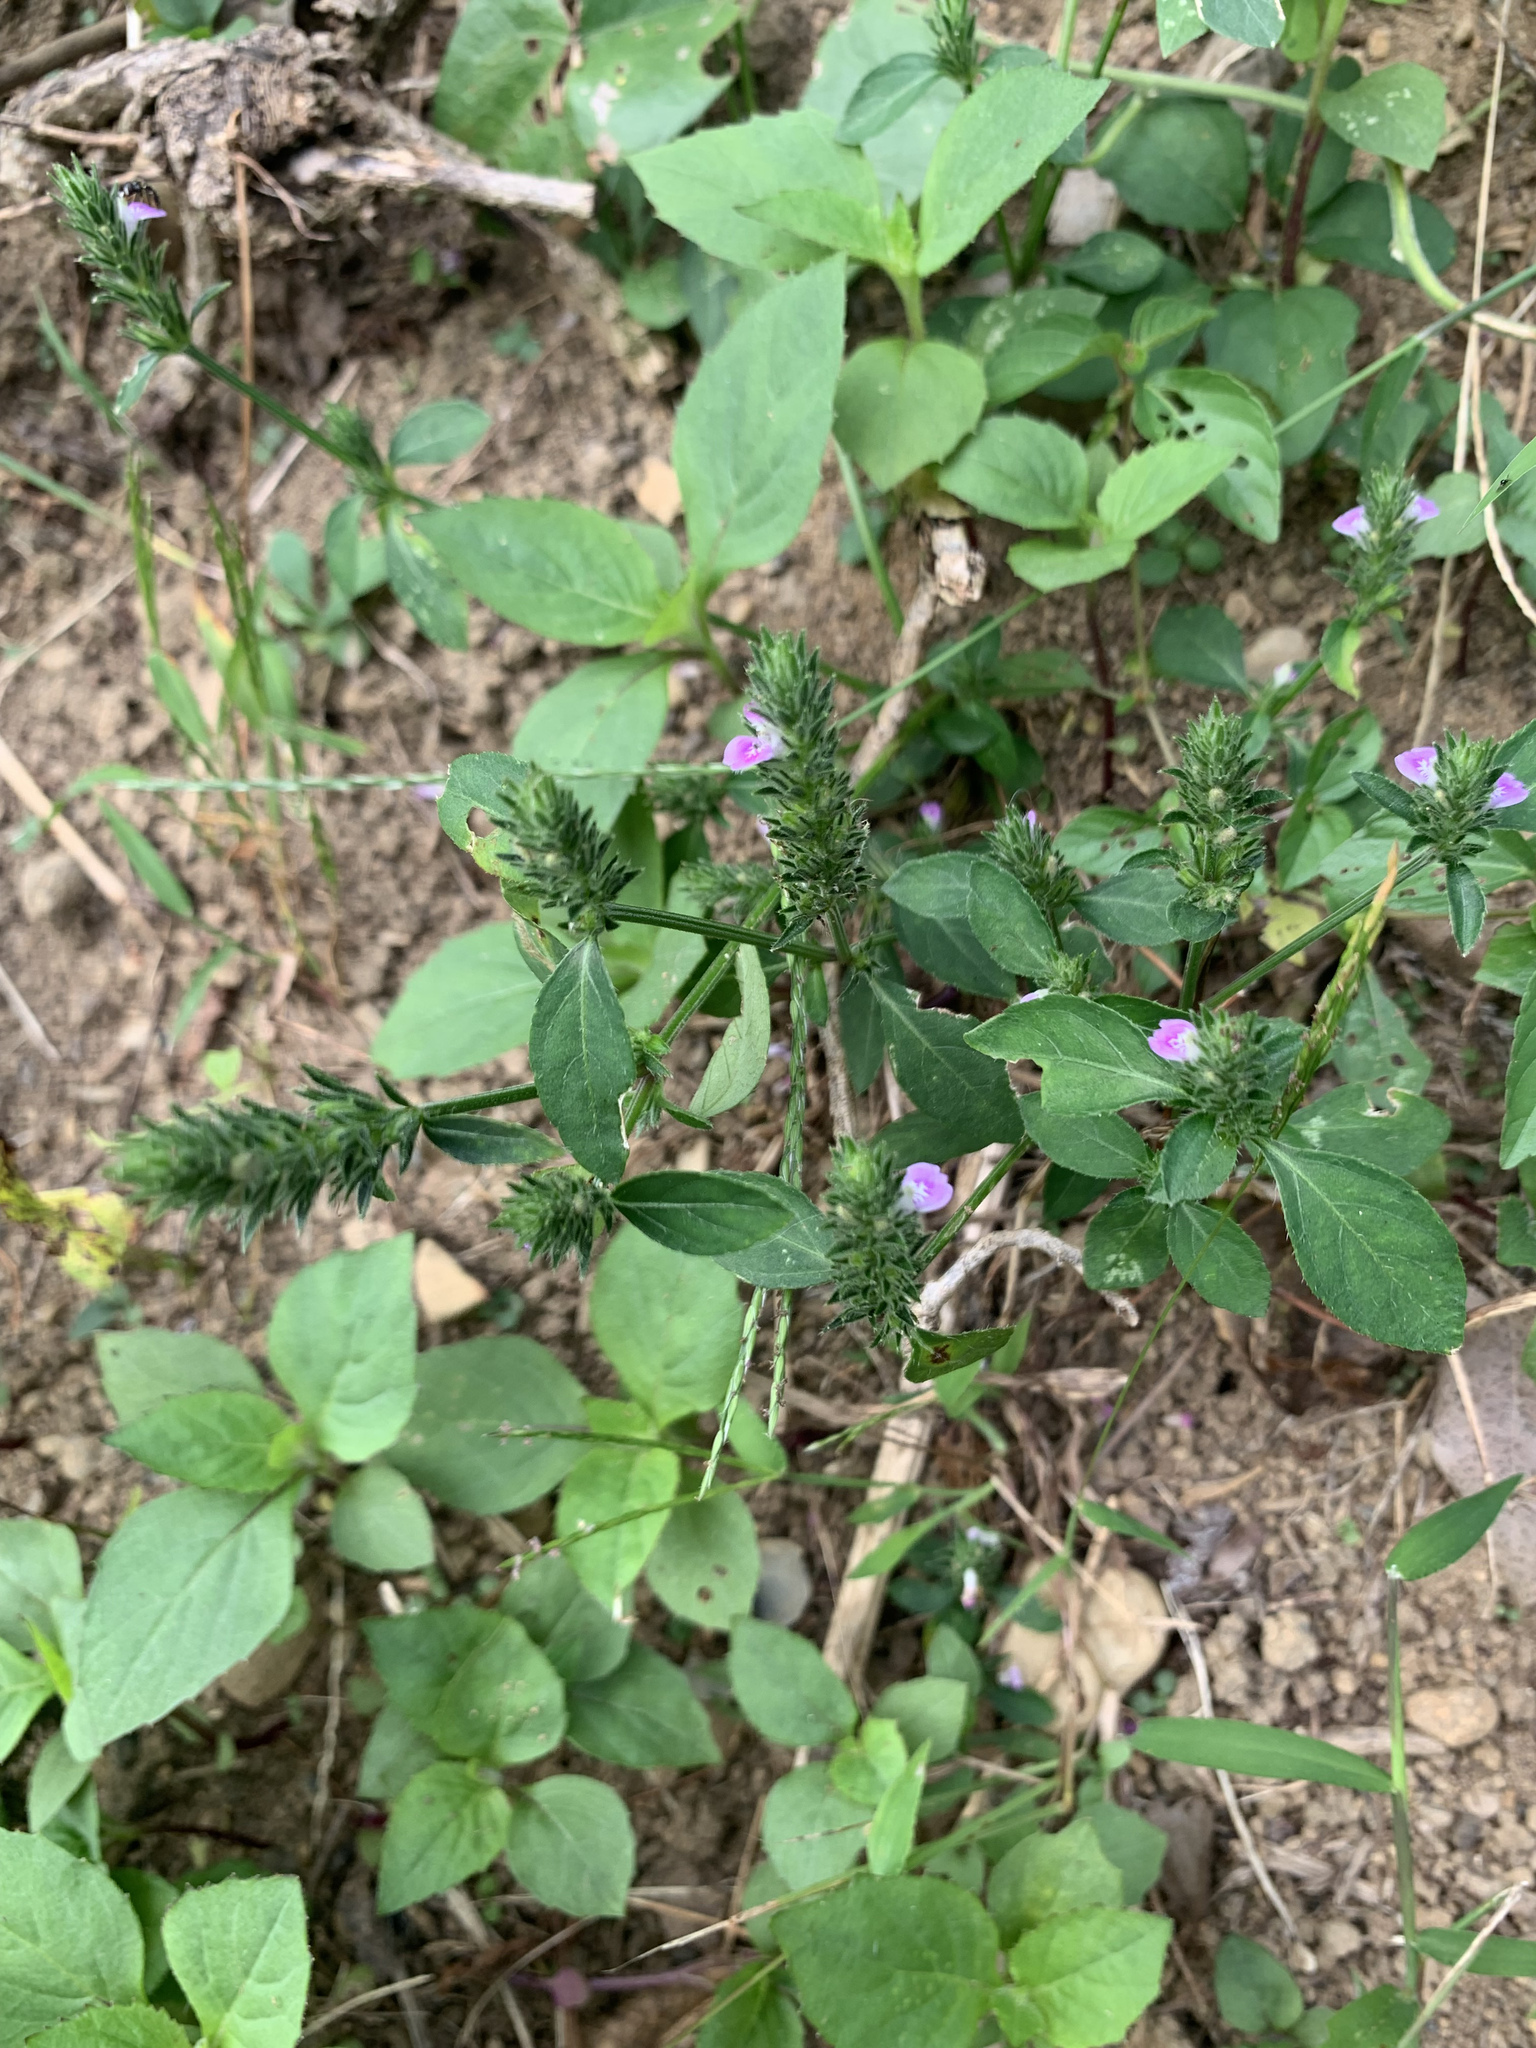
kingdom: Plantae
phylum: Tracheophyta
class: Magnoliopsida
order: Lamiales
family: Acanthaceae
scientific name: Acanthaceae
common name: Acanthaceae
